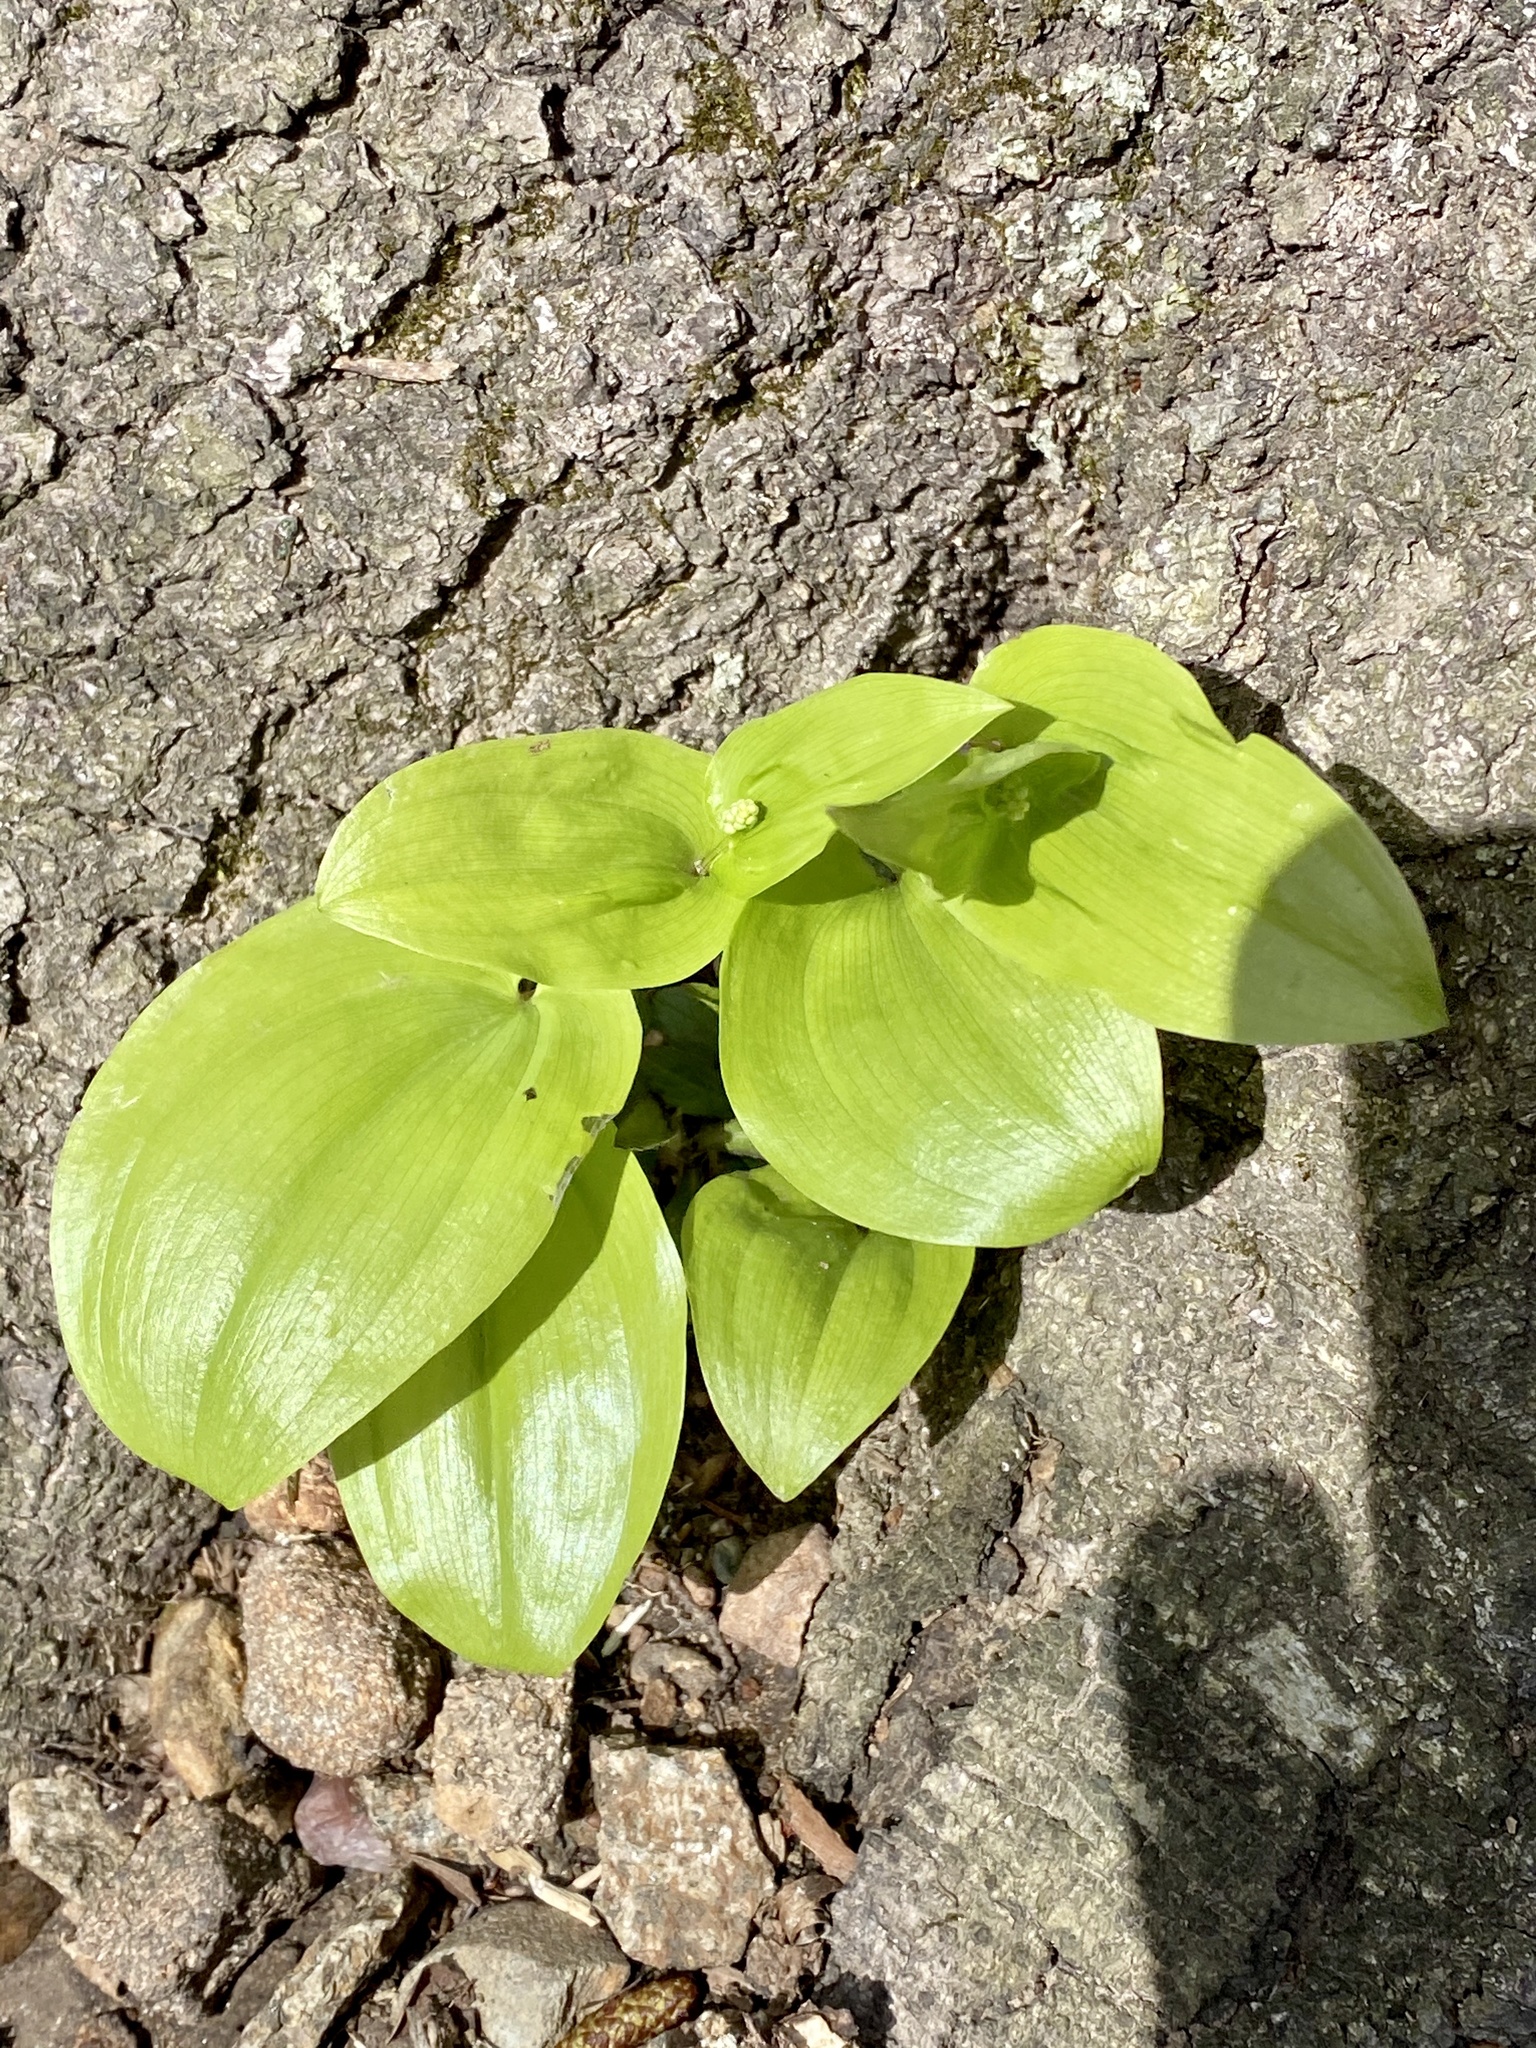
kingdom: Plantae
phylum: Tracheophyta
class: Liliopsida
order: Asparagales
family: Asparagaceae
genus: Maianthemum
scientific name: Maianthemum canadense
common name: False lily-of-the-valley
